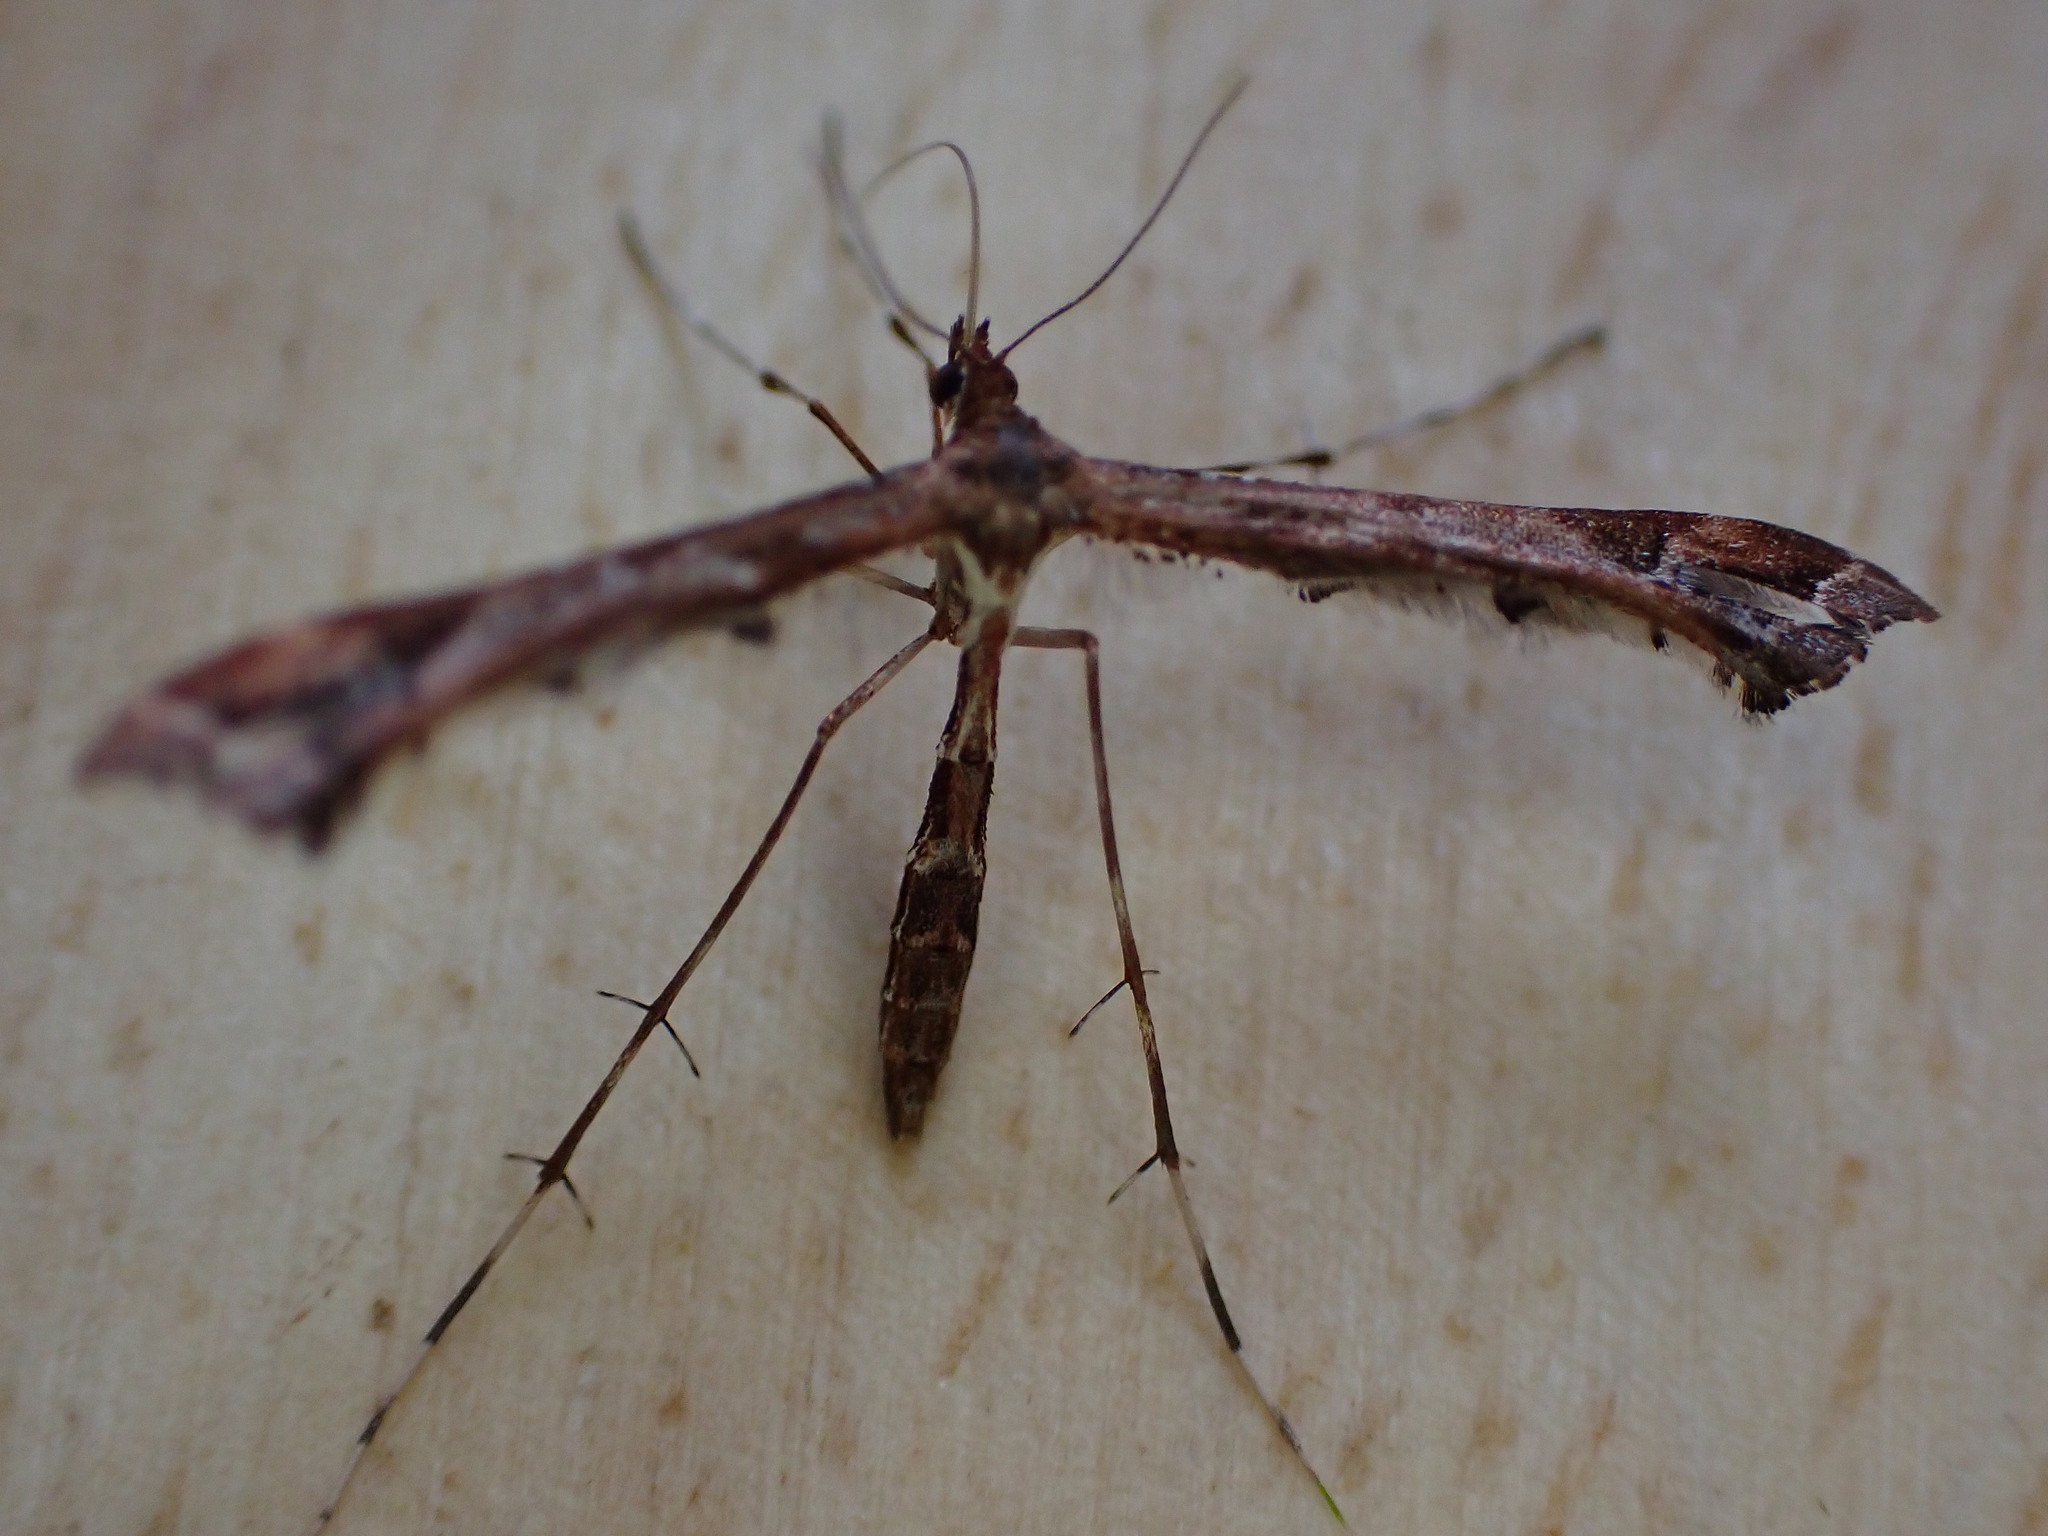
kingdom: Animalia
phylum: Arthropoda
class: Insecta
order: Lepidoptera
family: Pterophoridae
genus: Amblyptilia
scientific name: Amblyptilia acanthadactyla
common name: Beautiful plume
